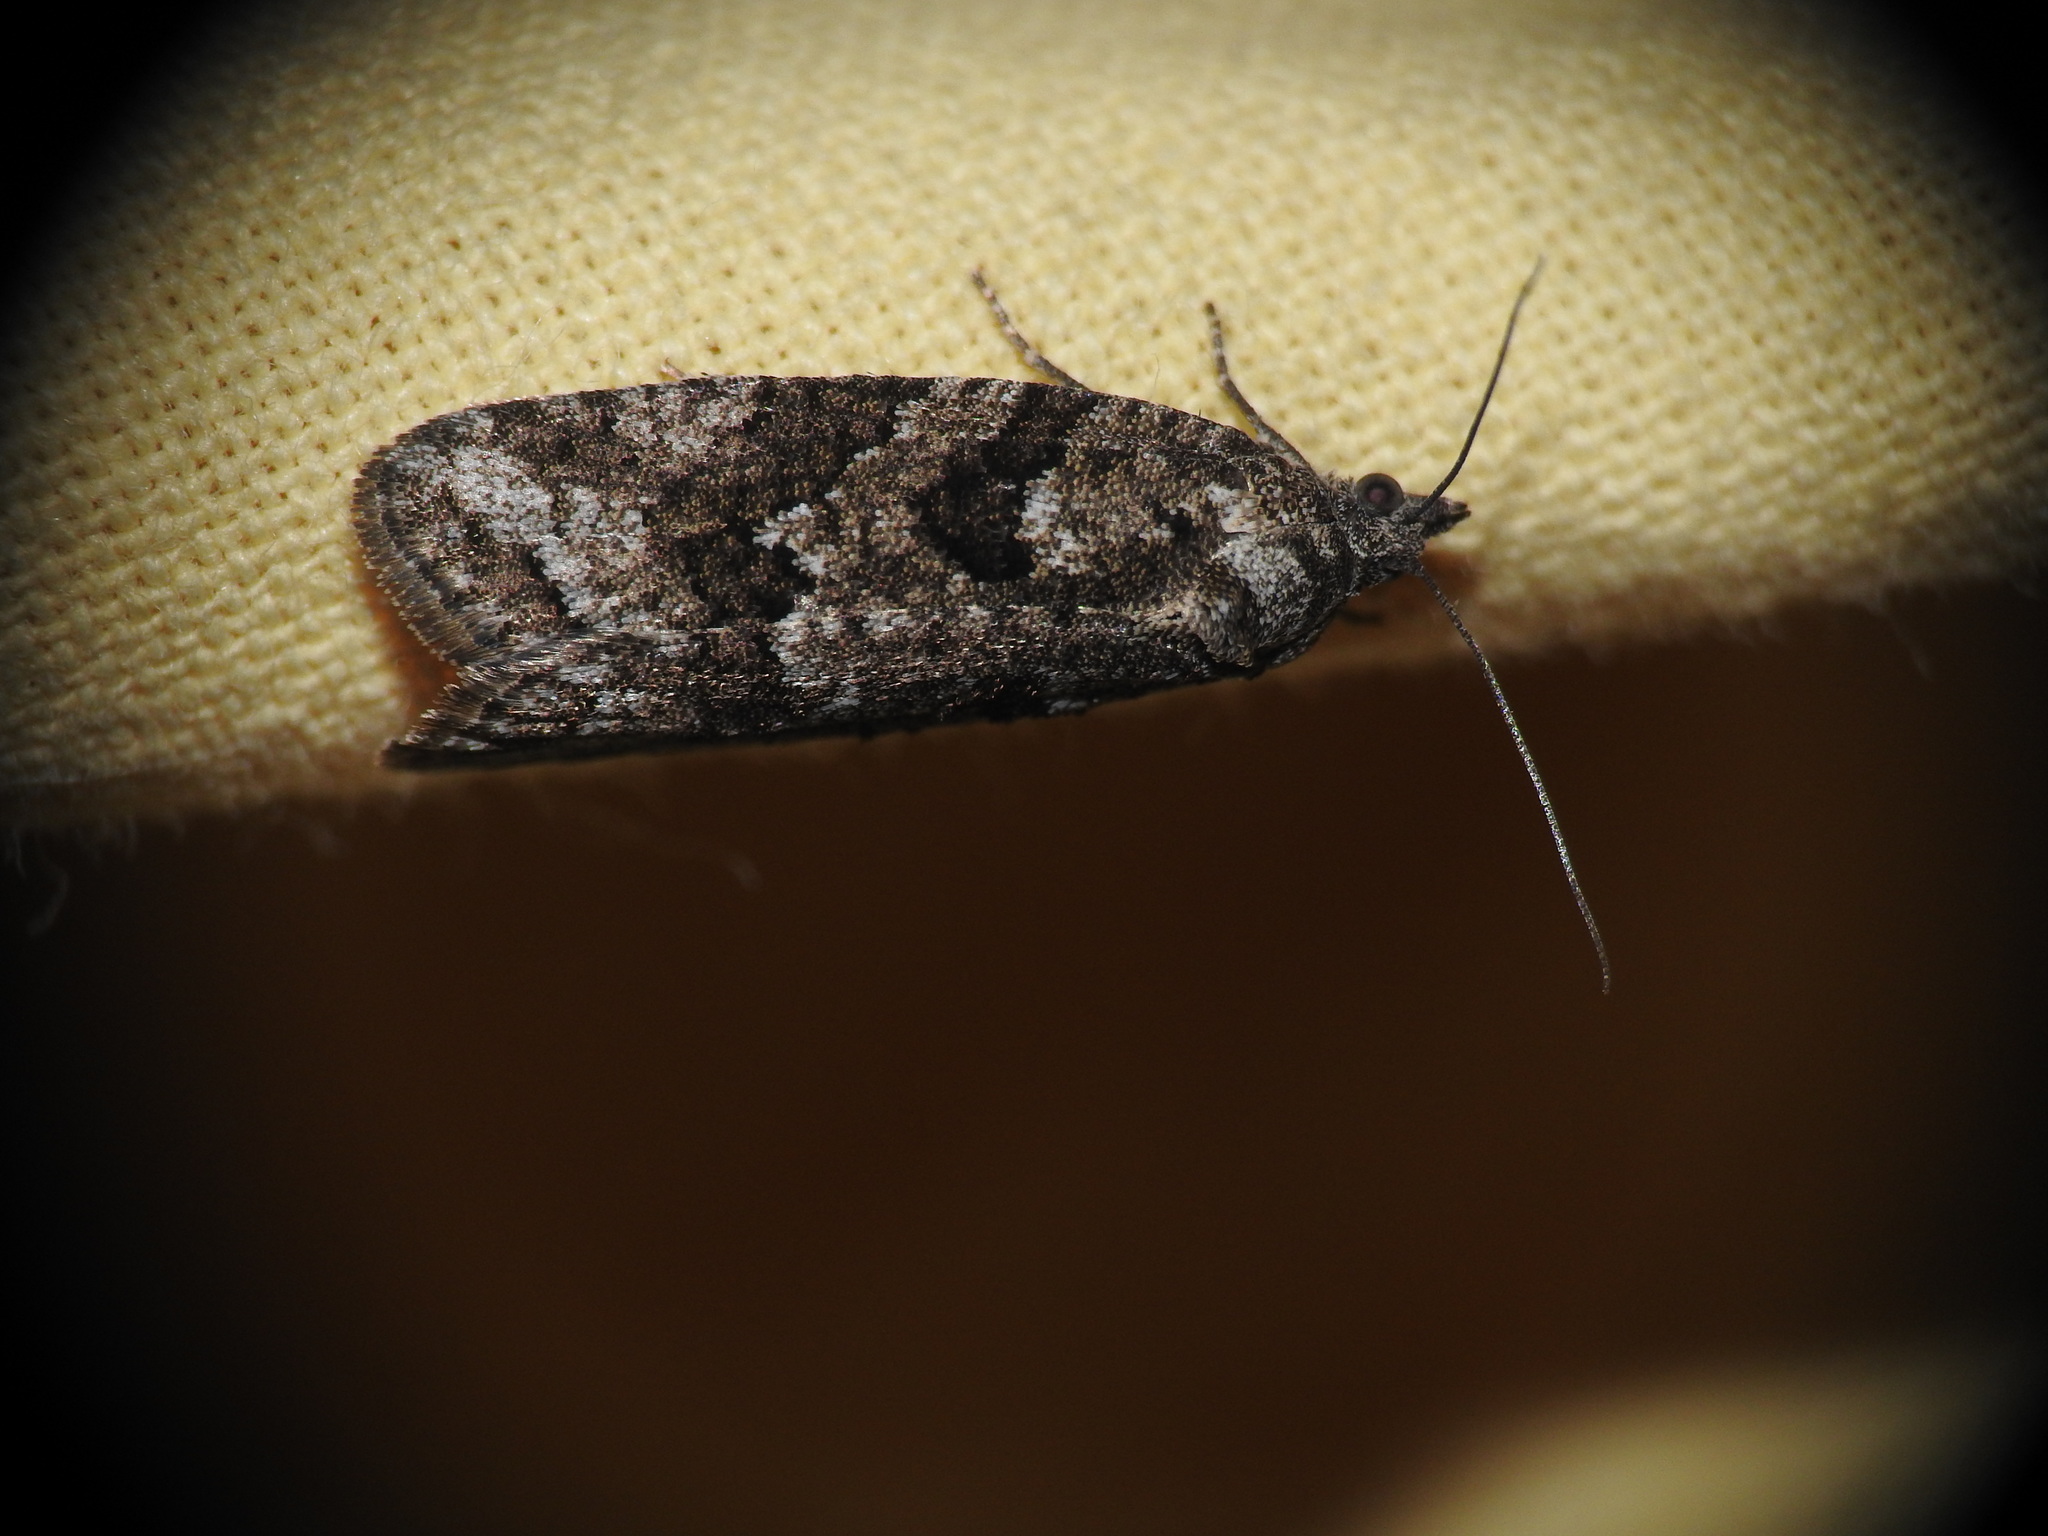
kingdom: Animalia
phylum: Arthropoda
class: Insecta
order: Lepidoptera
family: Tortricidae
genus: Cnephasia
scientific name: Cnephasia cupressivorana
